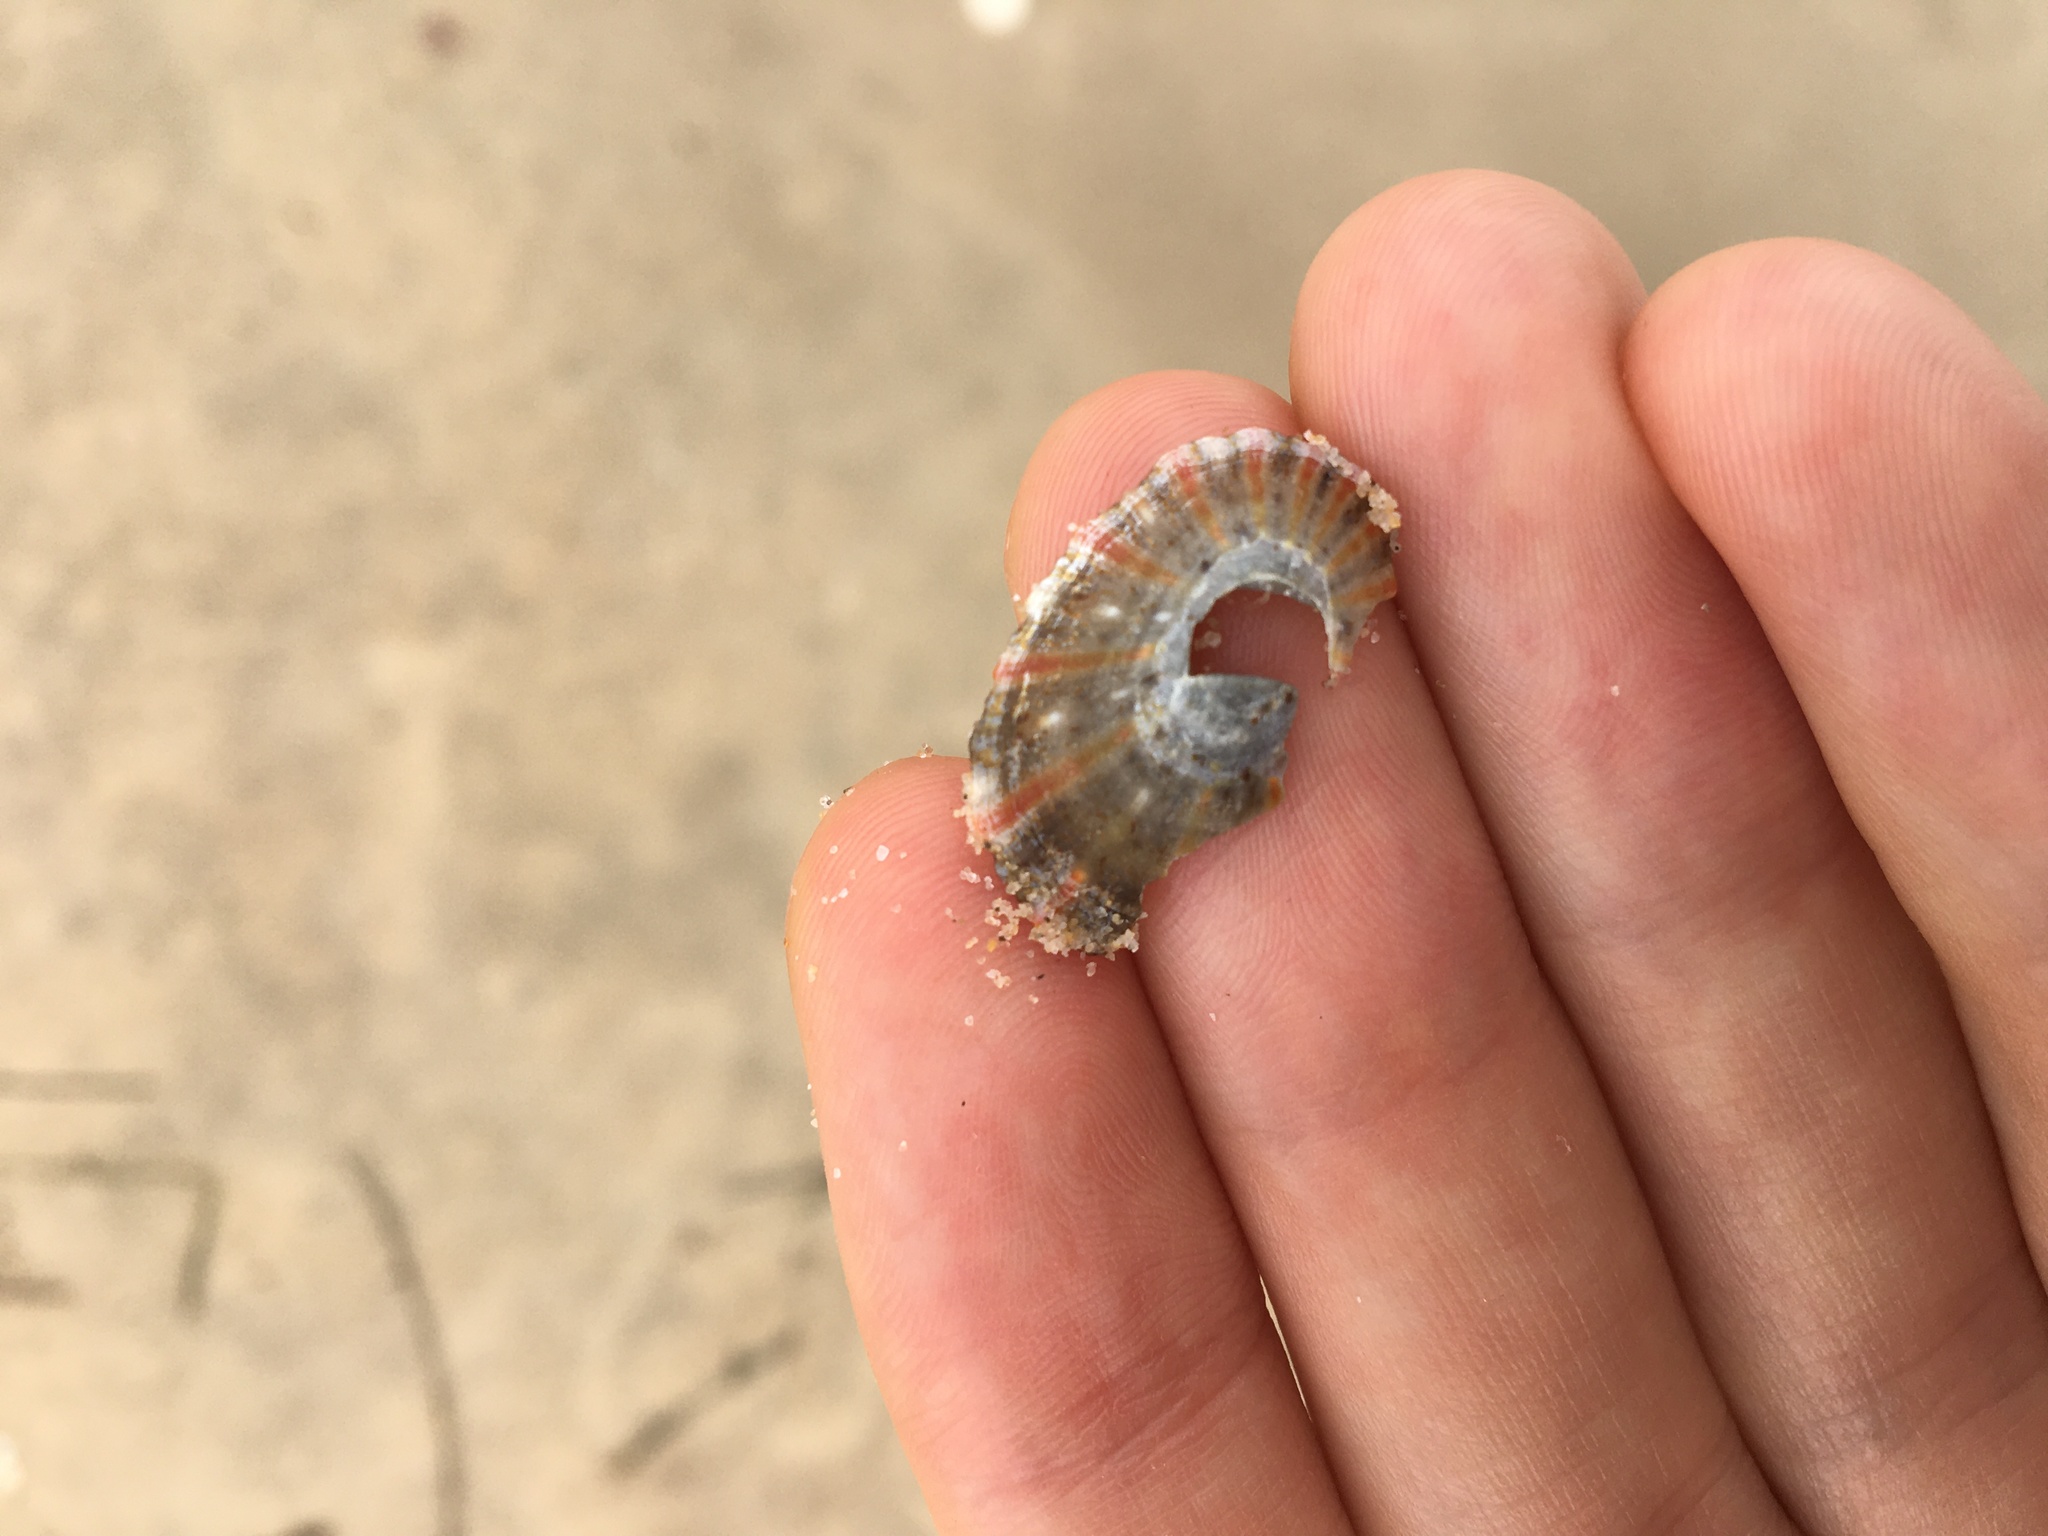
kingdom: Animalia
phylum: Mollusca
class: Gastropoda
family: Nacellidae
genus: Cellana
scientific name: Cellana tramoserica
